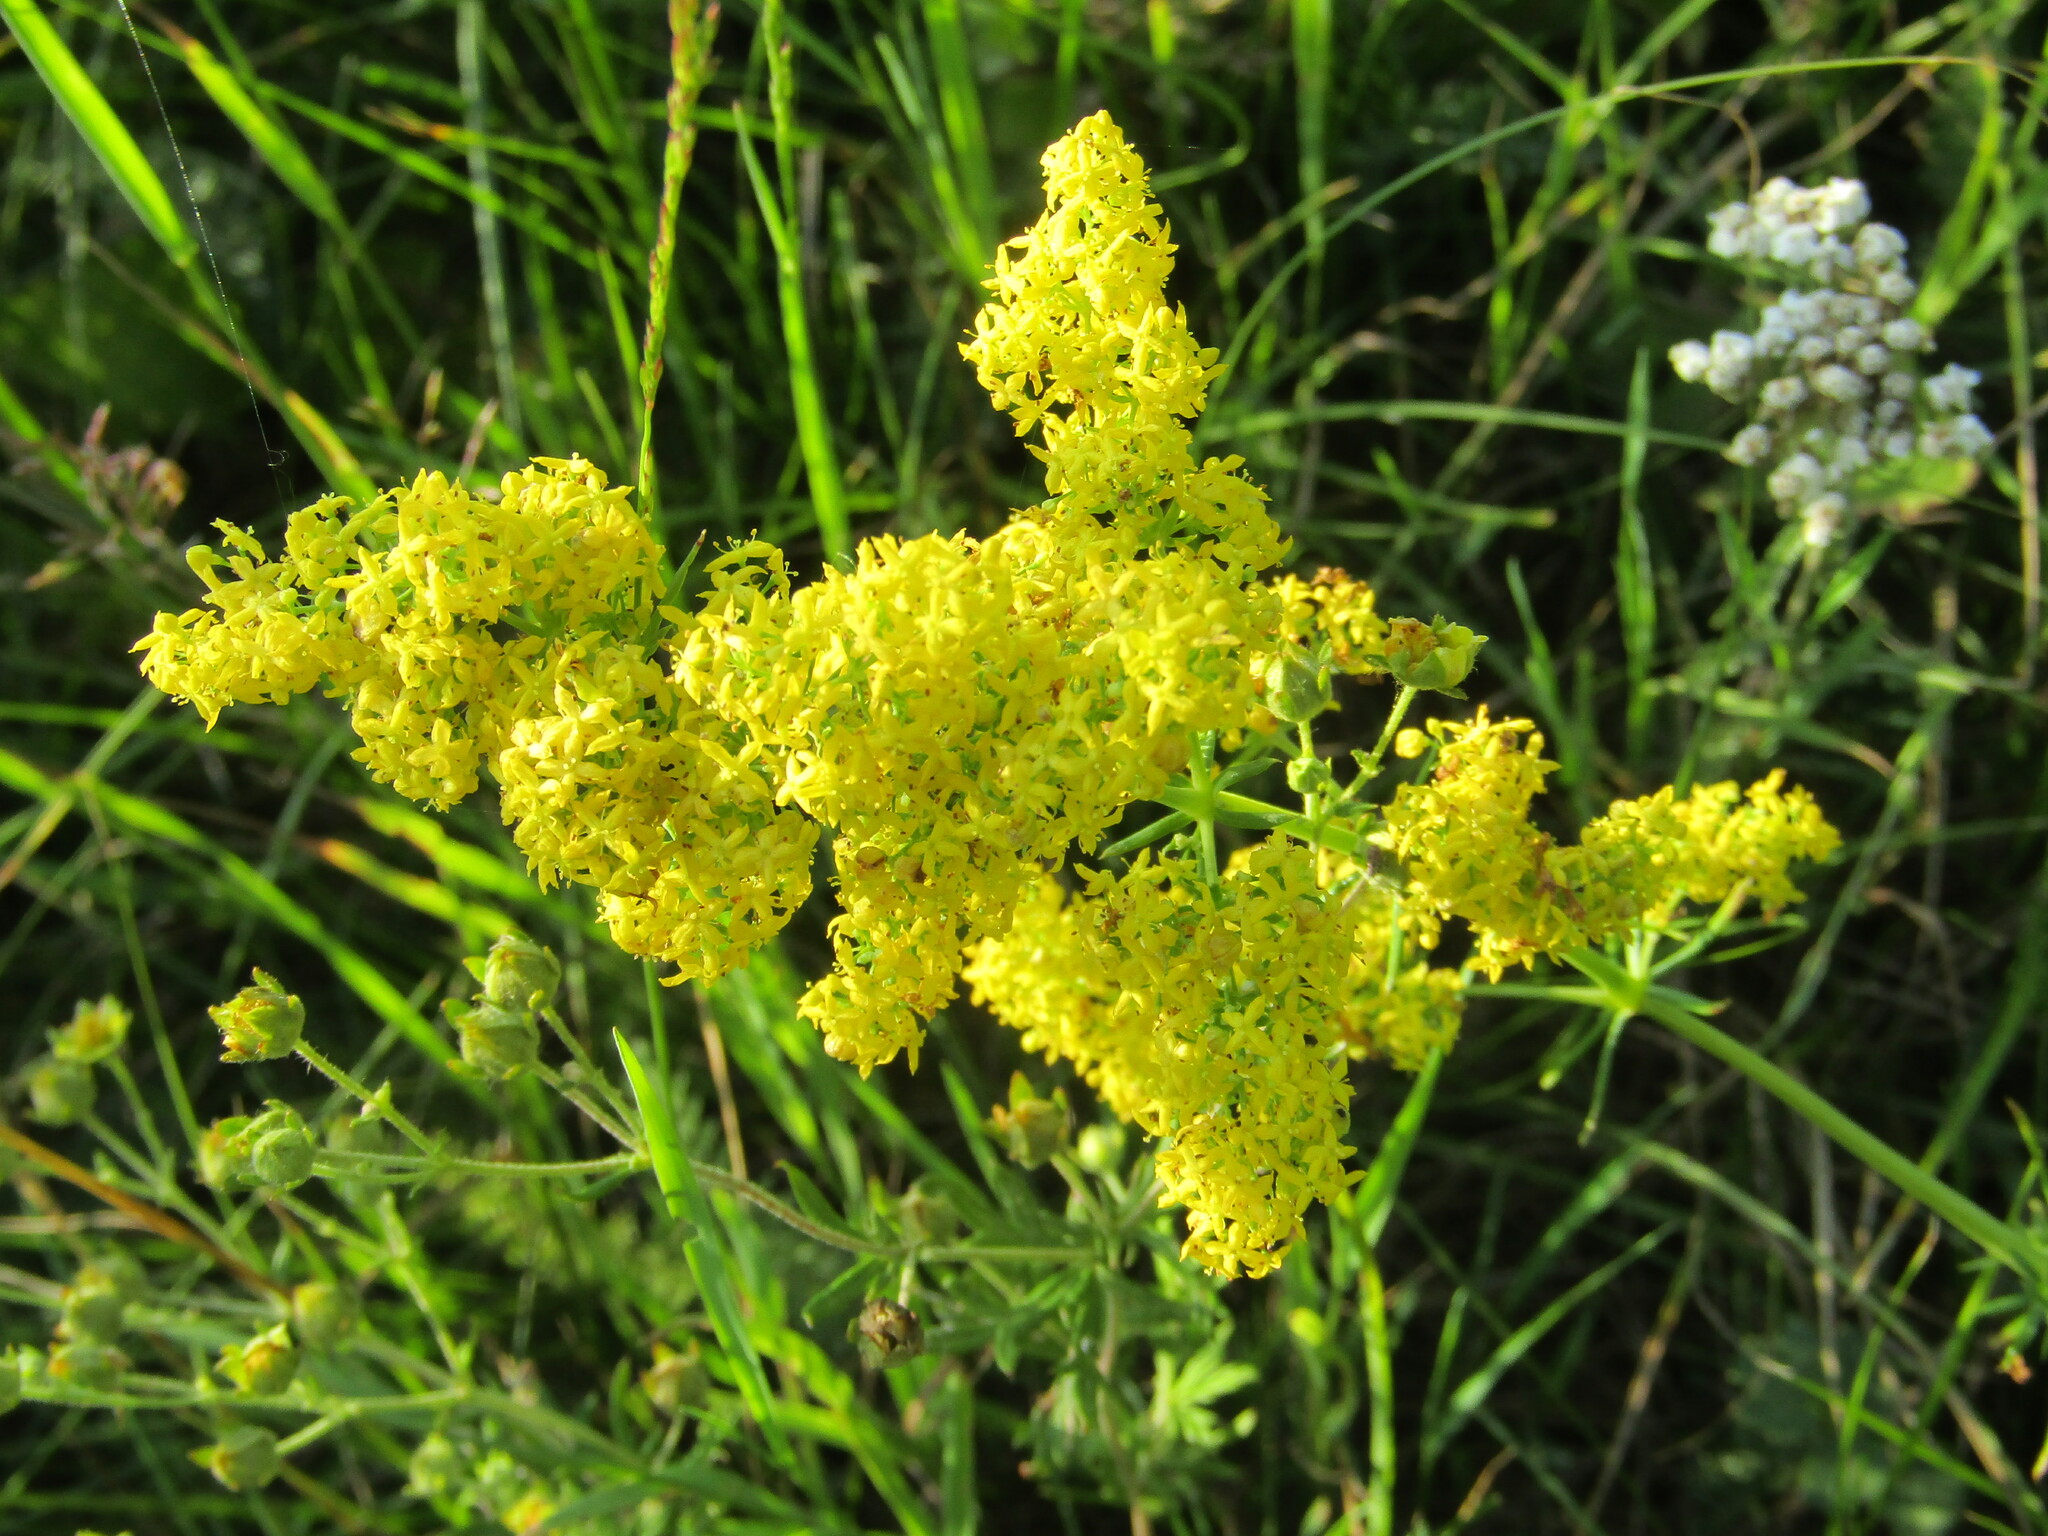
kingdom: Plantae
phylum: Tracheophyta
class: Magnoliopsida
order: Gentianales
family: Rubiaceae
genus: Galium
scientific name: Galium verum
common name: Lady's bedstraw
